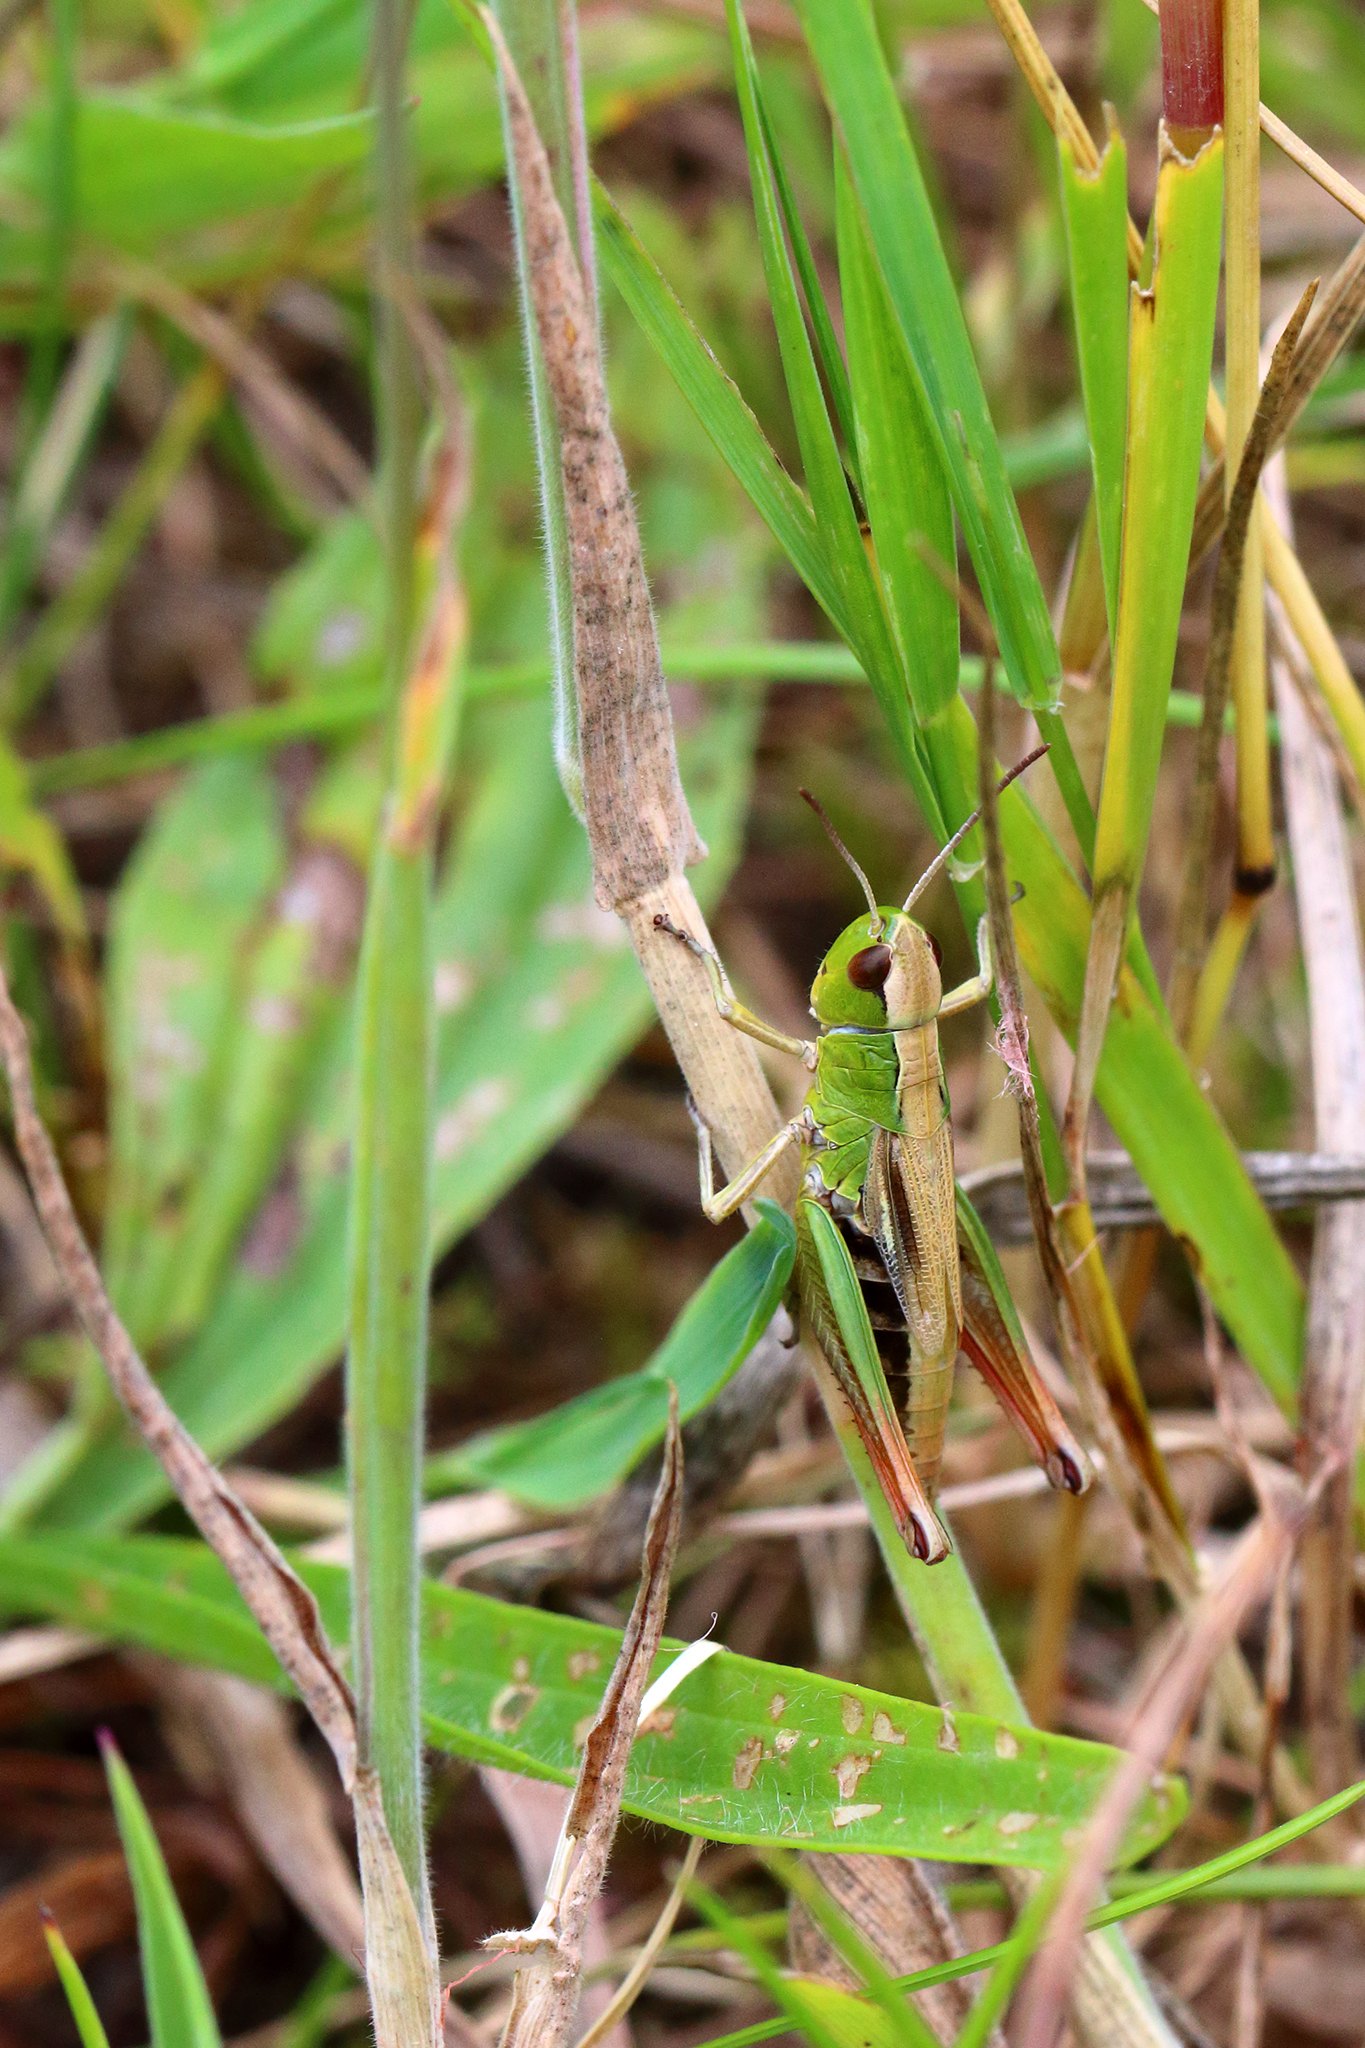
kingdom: Animalia
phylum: Arthropoda
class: Insecta
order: Orthoptera
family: Acrididae
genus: Pseudochorthippus
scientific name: Pseudochorthippus parallelus
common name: Meadow grasshopper
